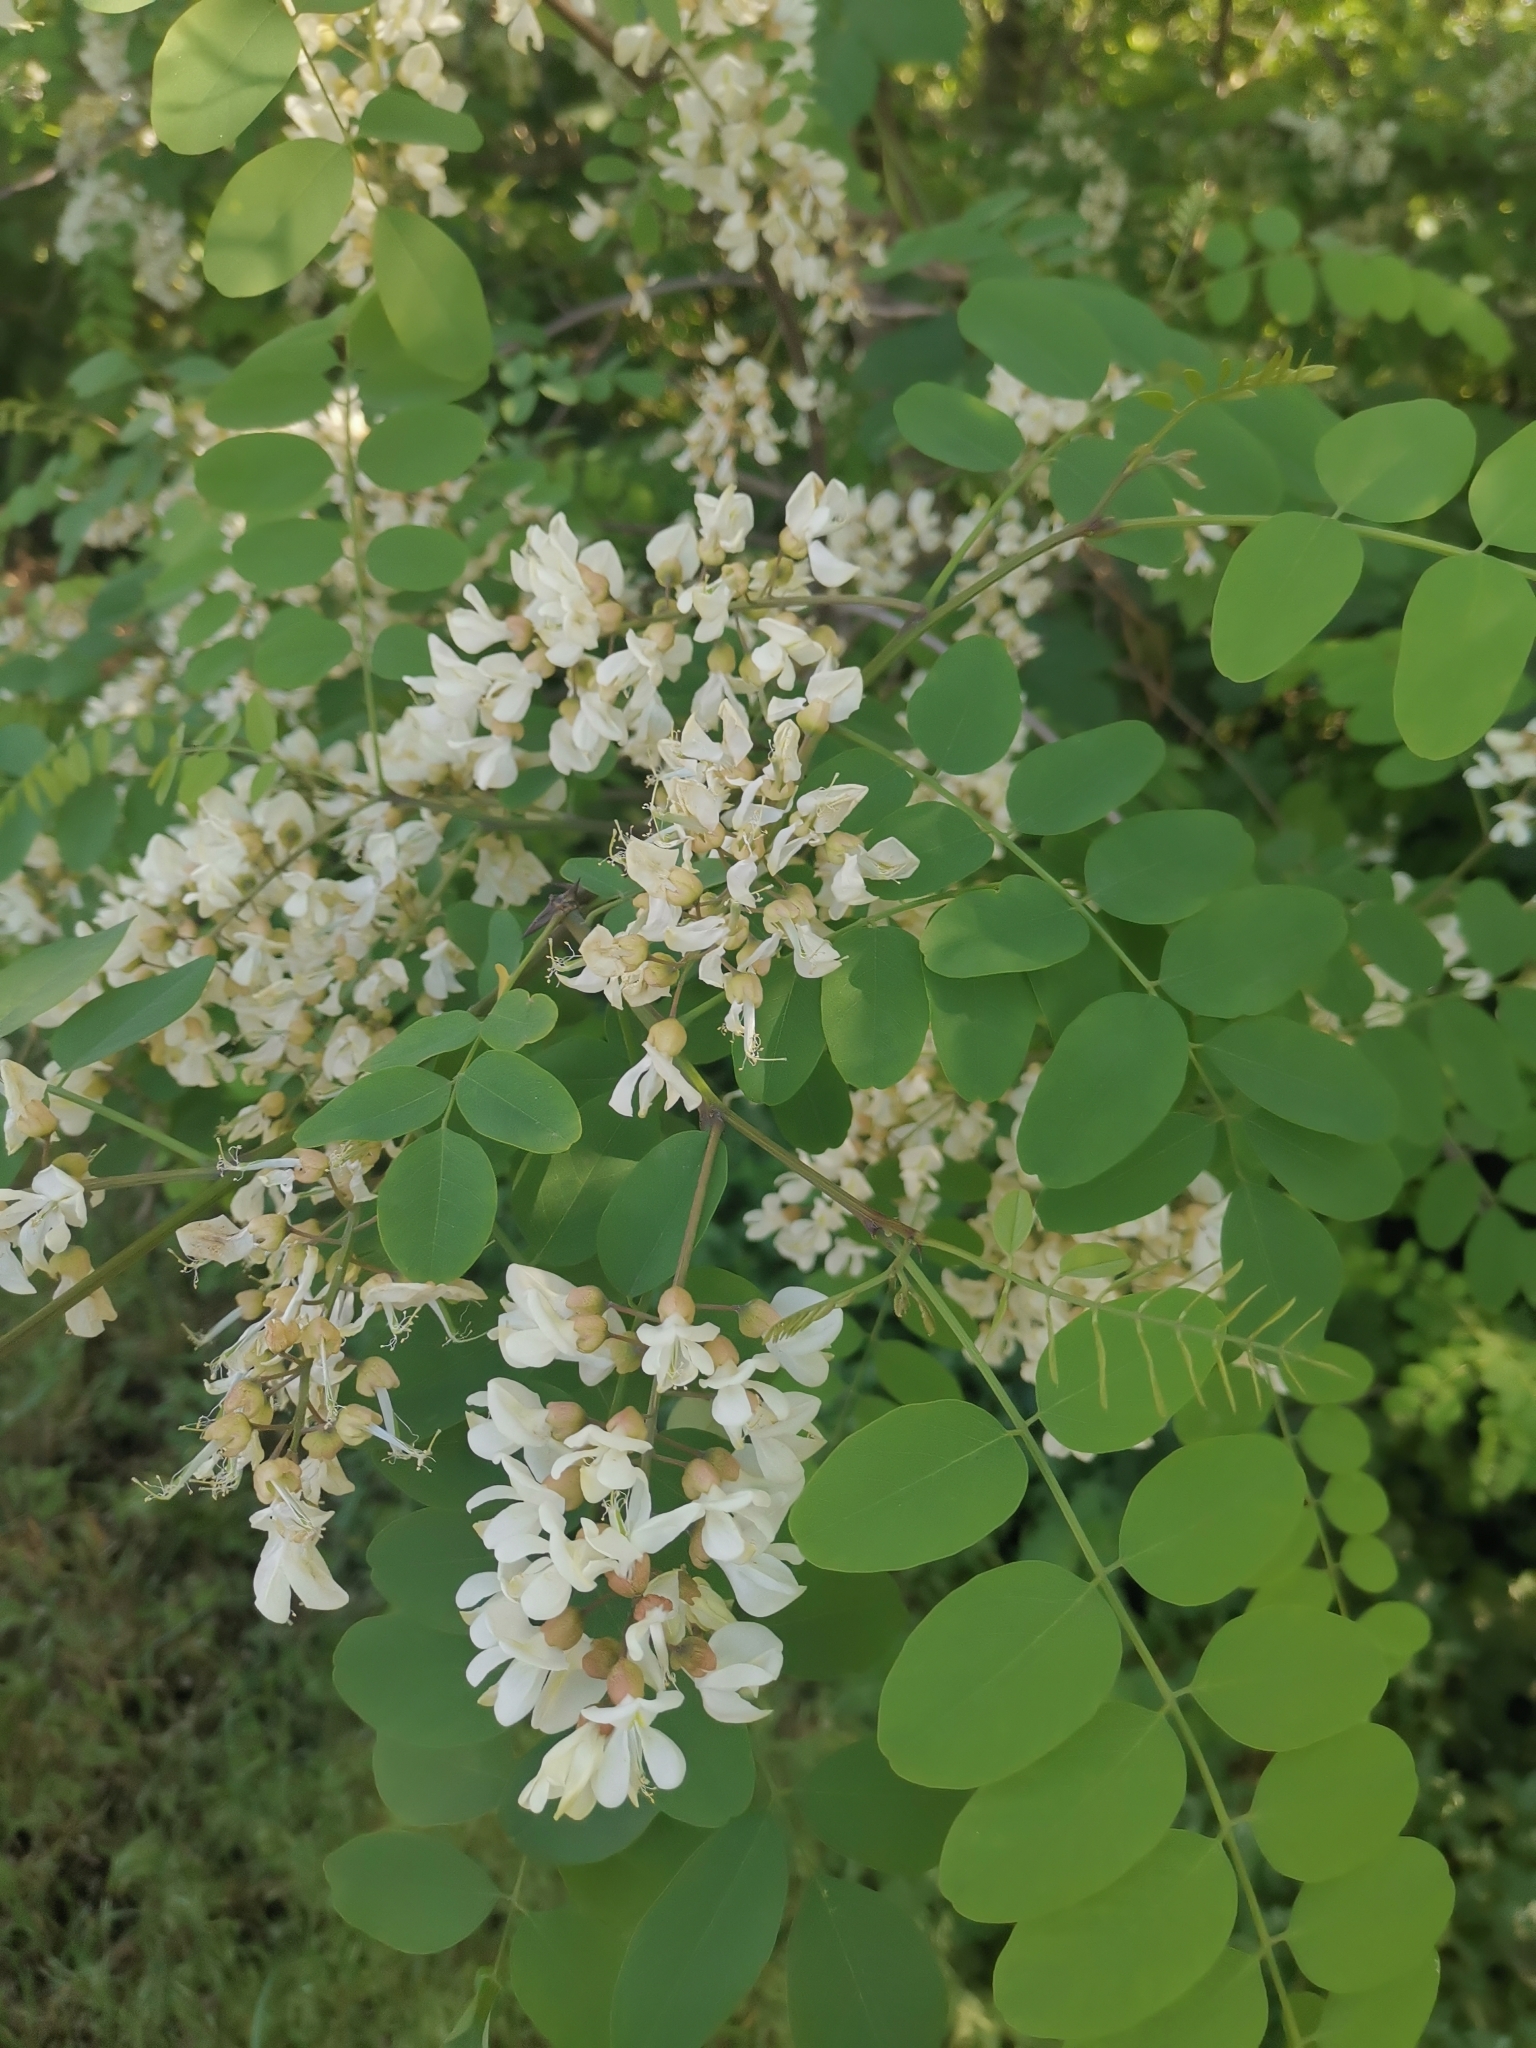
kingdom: Plantae
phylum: Tracheophyta
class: Magnoliopsida
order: Fabales
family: Fabaceae
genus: Robinia
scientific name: Robinia pseudoacacia
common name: Black locust
